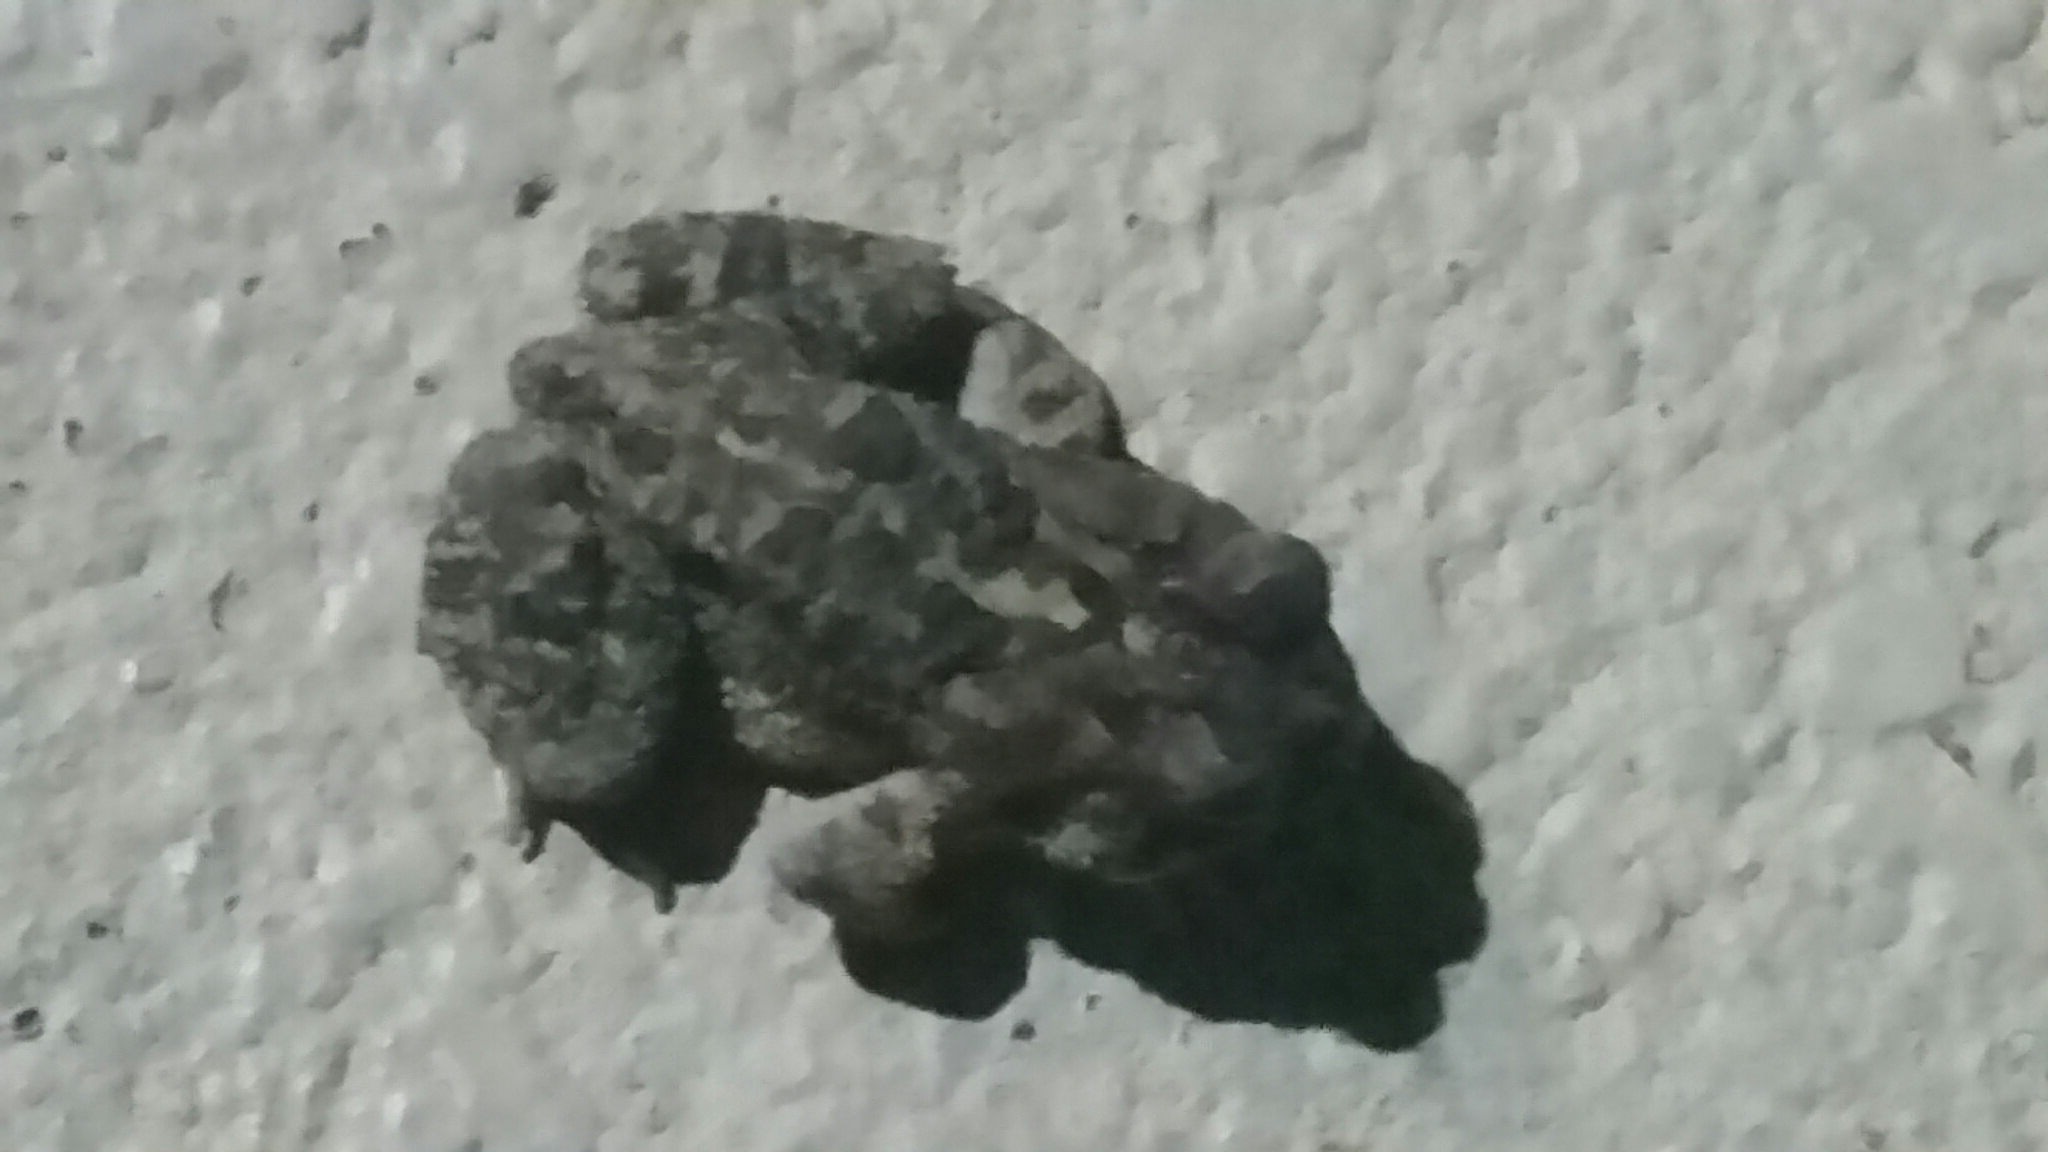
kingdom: Animalia
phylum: Chordata
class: Amphibia
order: Anura
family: Bufonidae
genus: Anaxyrus
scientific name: Anaxyrus terrestris
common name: Southern toad
